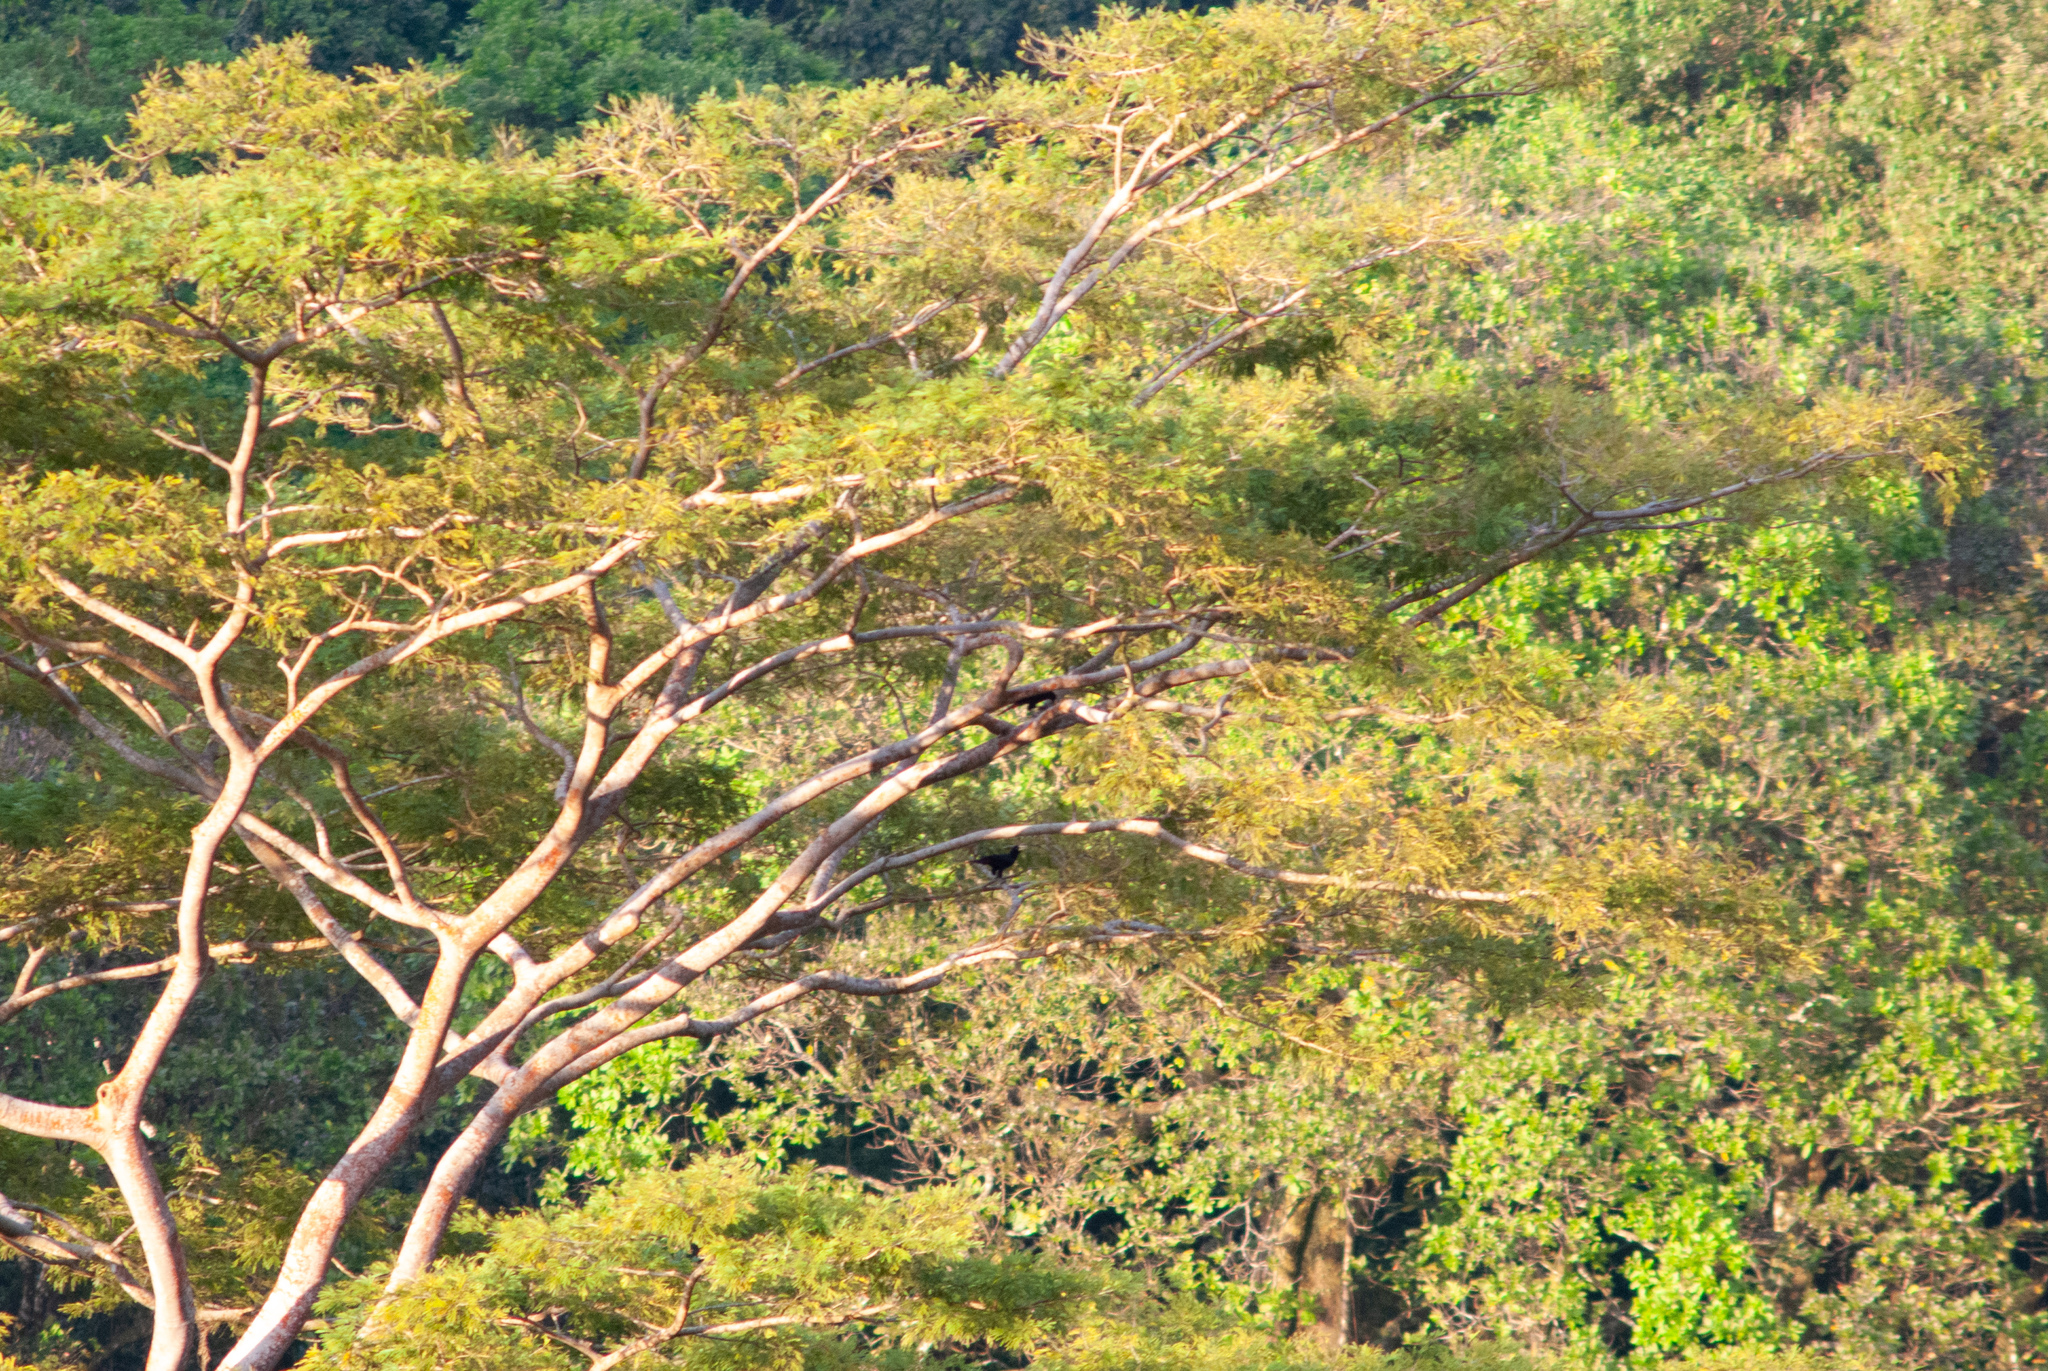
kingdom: Animalia
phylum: Chordata
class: Aves
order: Passeriformes
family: Icteridae
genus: Psarocolius
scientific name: Psarocolius decumanus
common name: Crested oropendola
